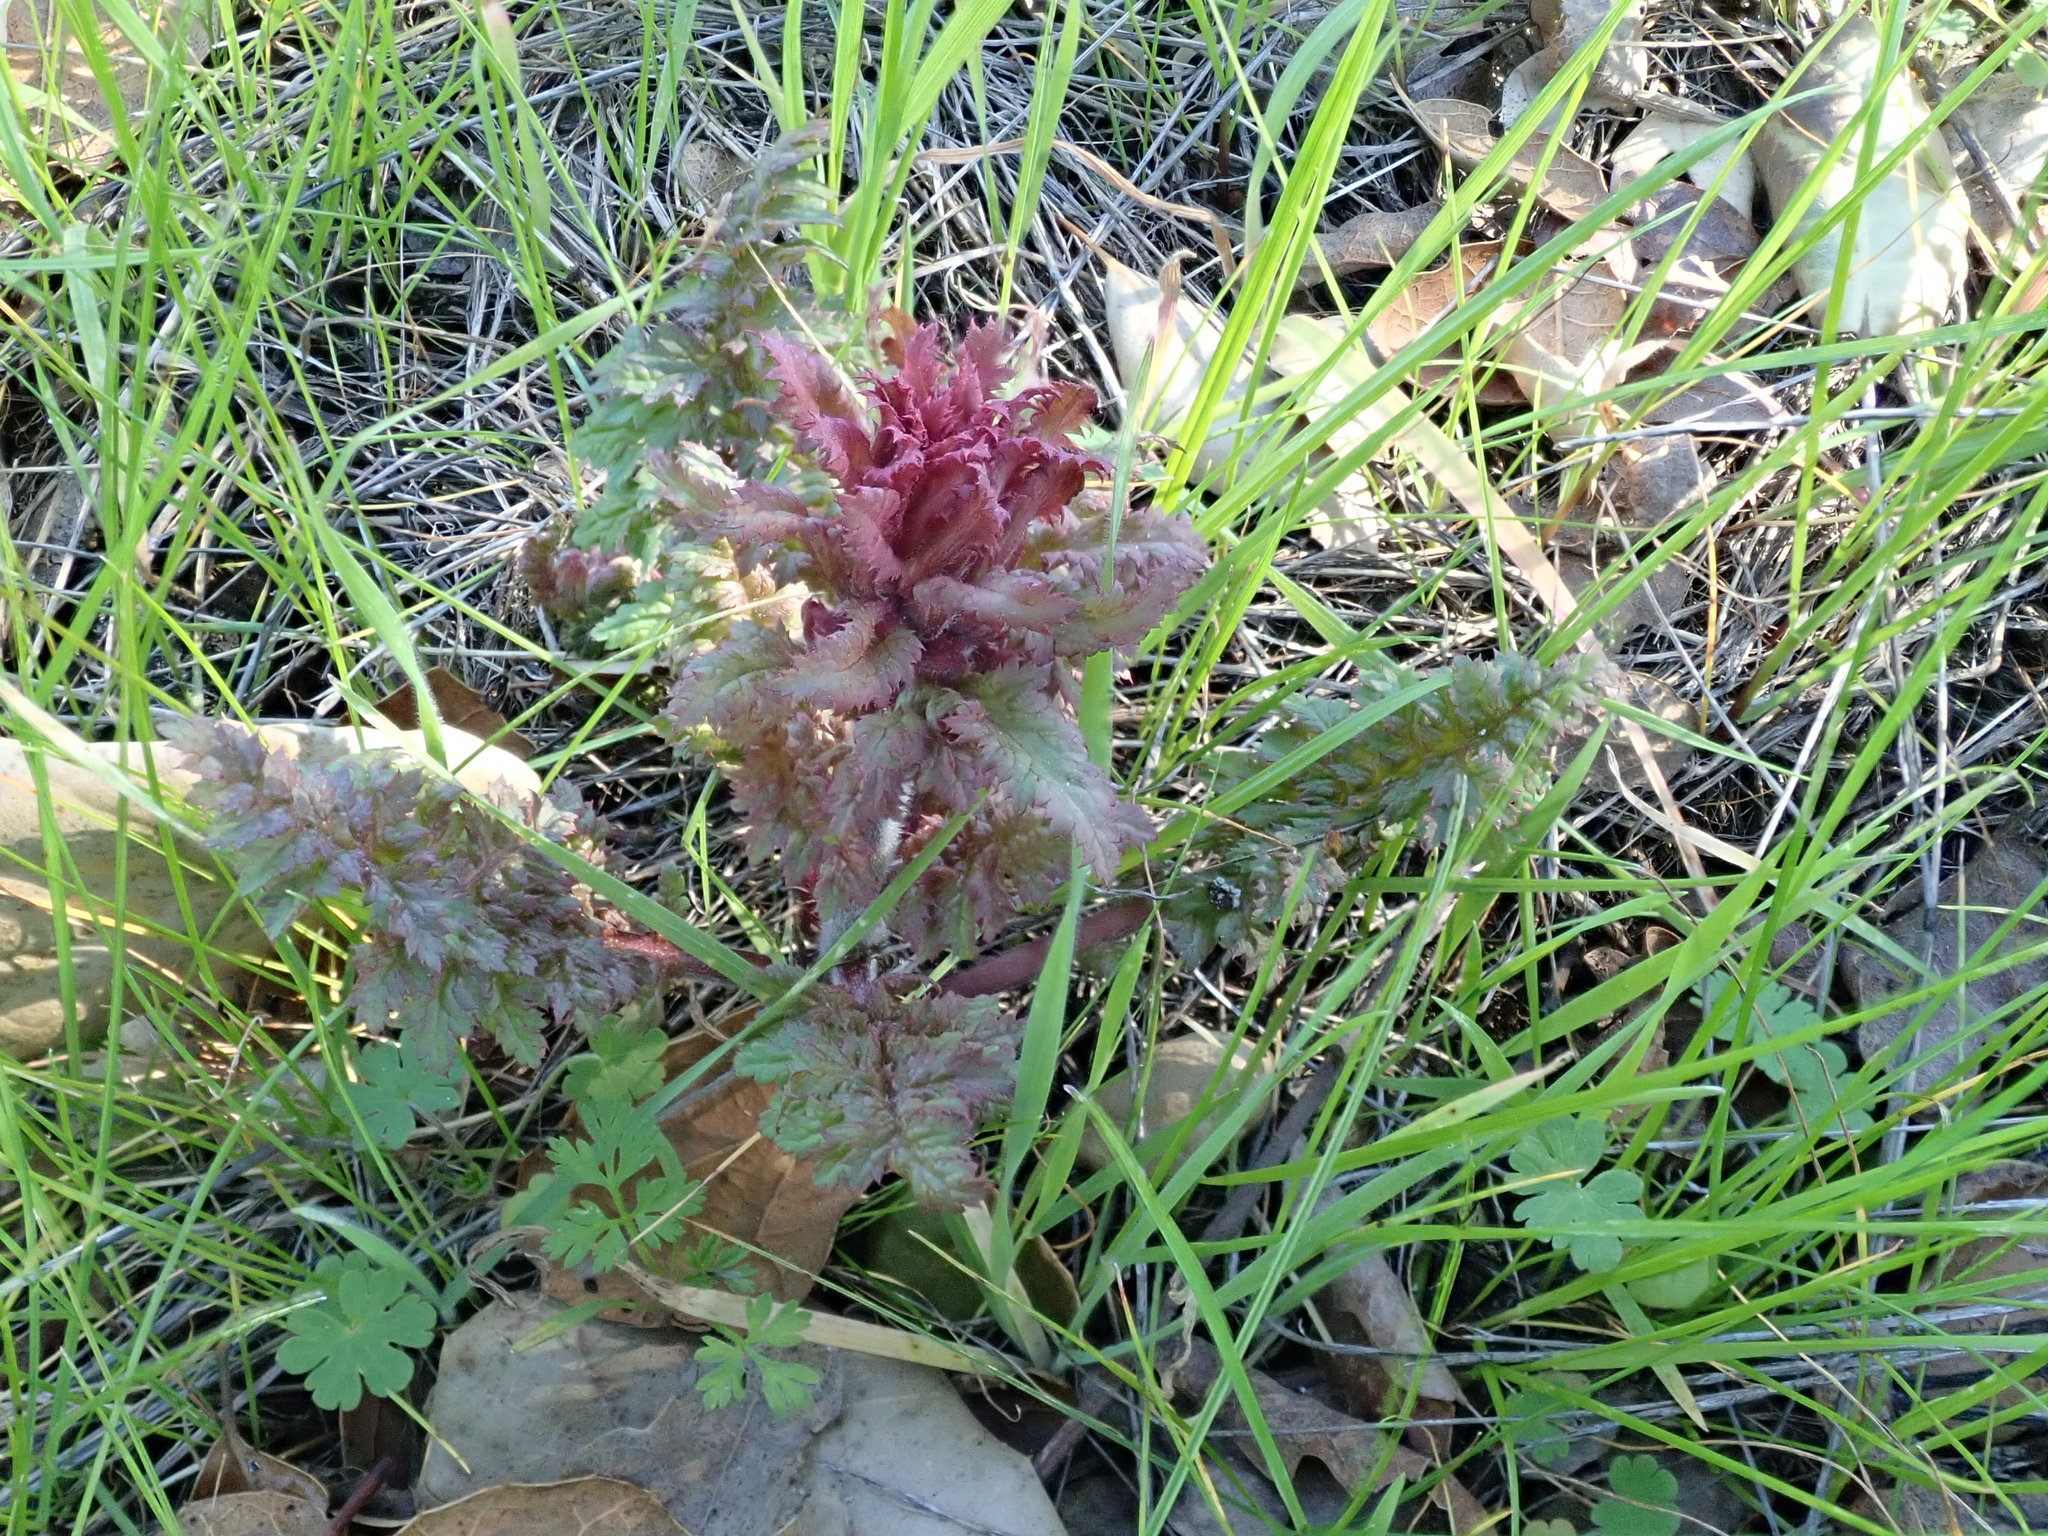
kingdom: Plantae
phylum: Tracheophyta
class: Magnoliopsida
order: Lamiales
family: Orobanchaceae
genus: Pedicularis
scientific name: Pedicularis densiflora
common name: Indian warrior
